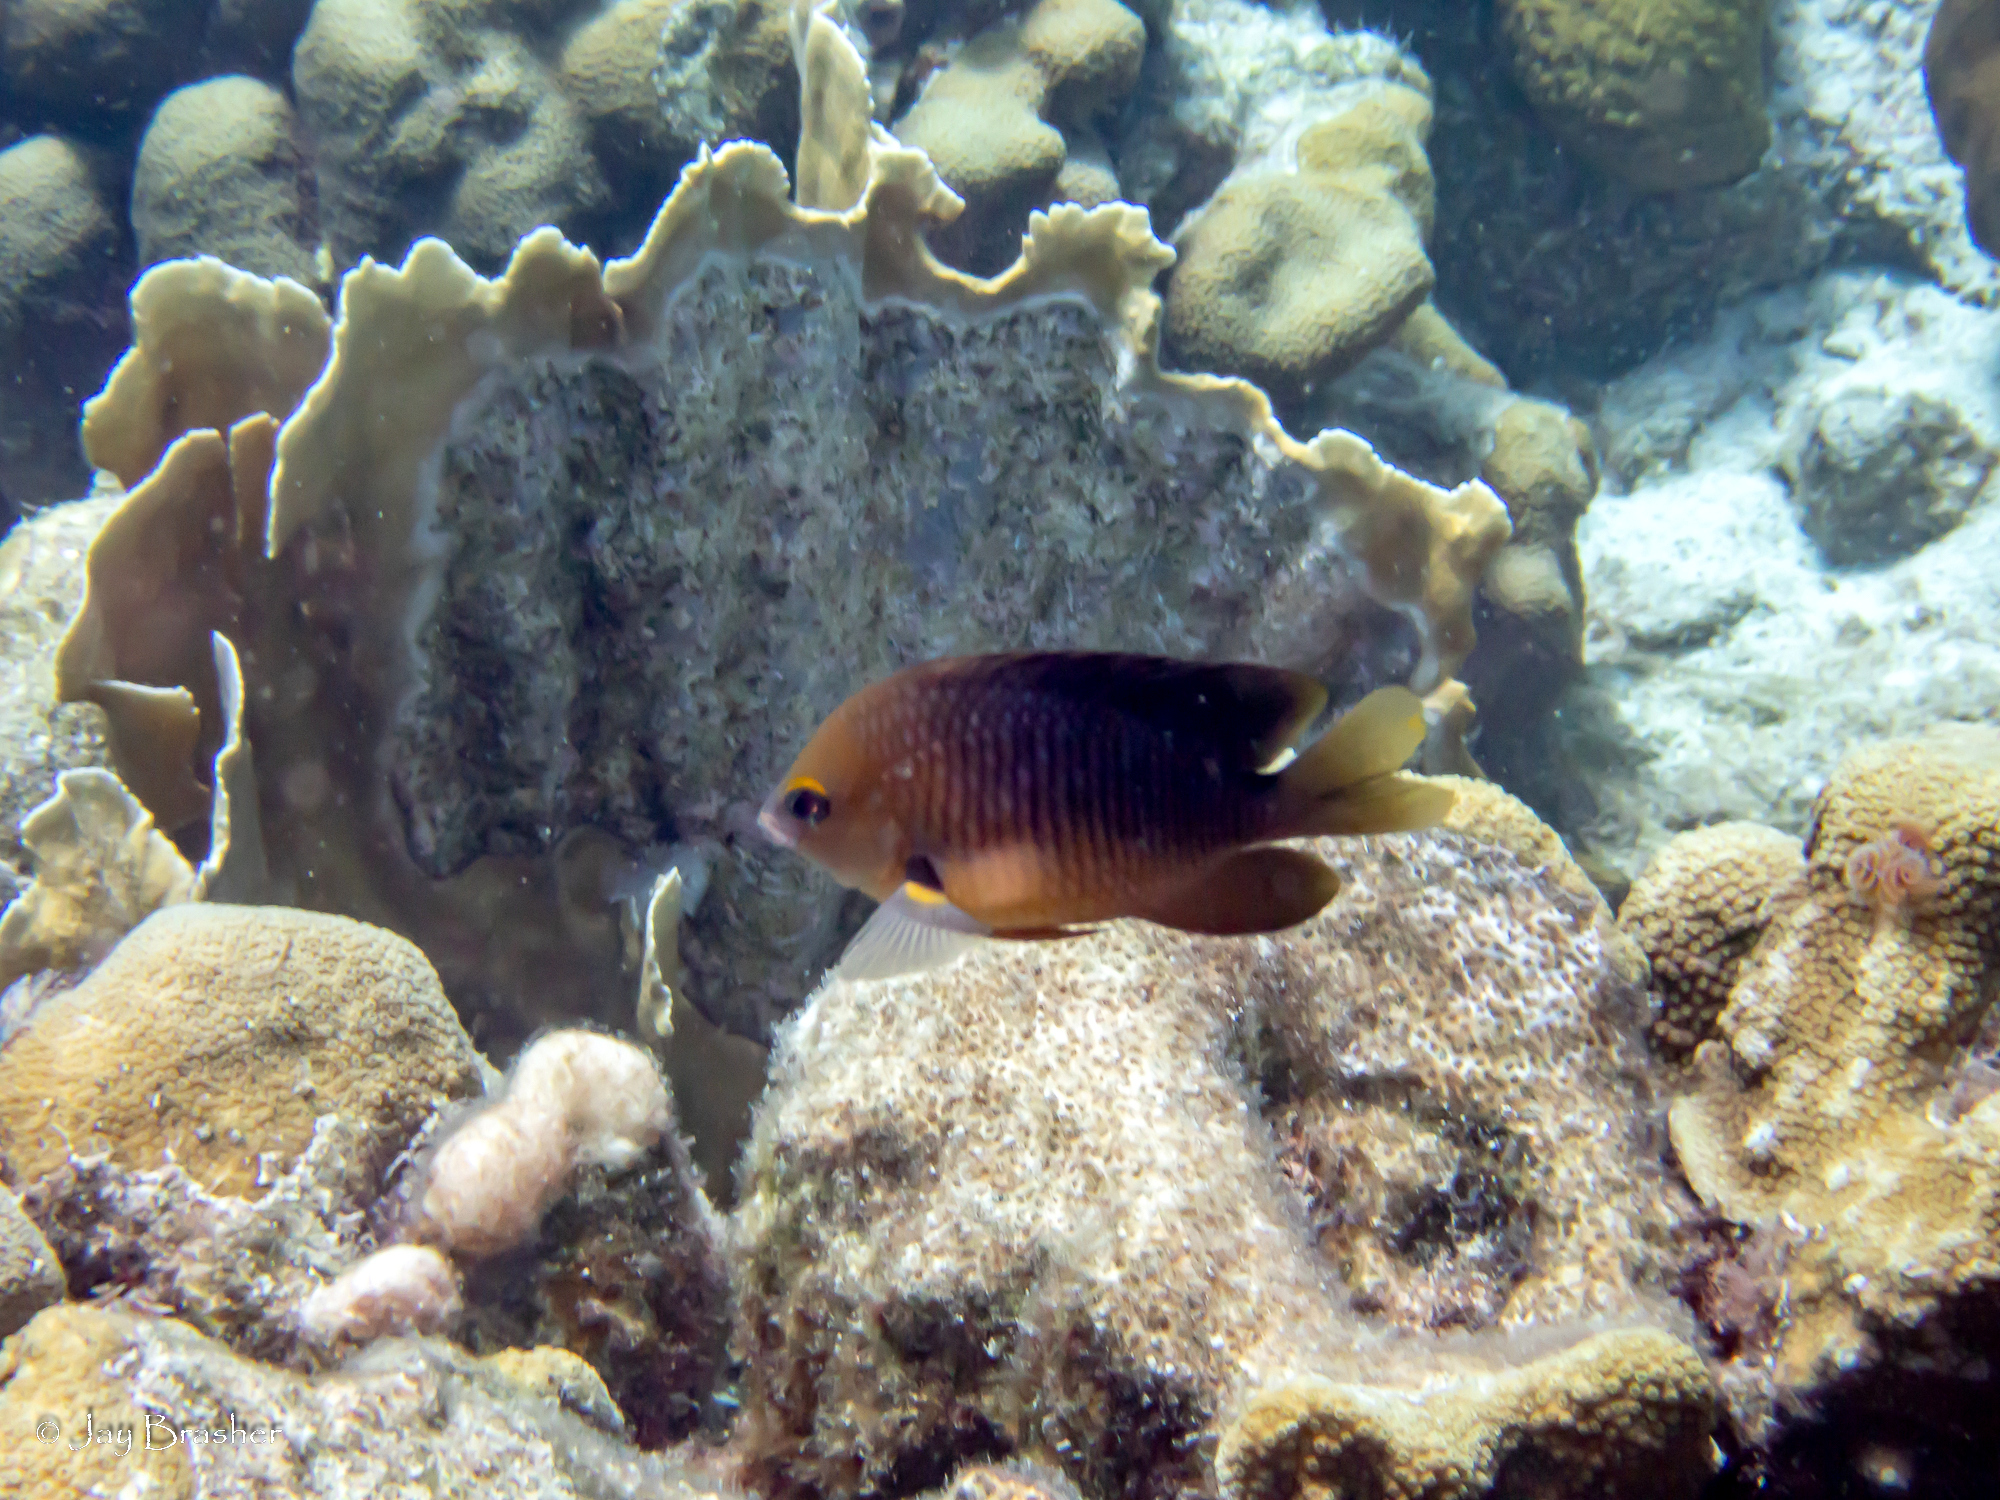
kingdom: Animalia
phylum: Cnidaria
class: Hydrozoa
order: Anthoathecata
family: Milleporidae
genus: Millepora
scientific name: Millepora complanata
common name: Bladed fire coral
